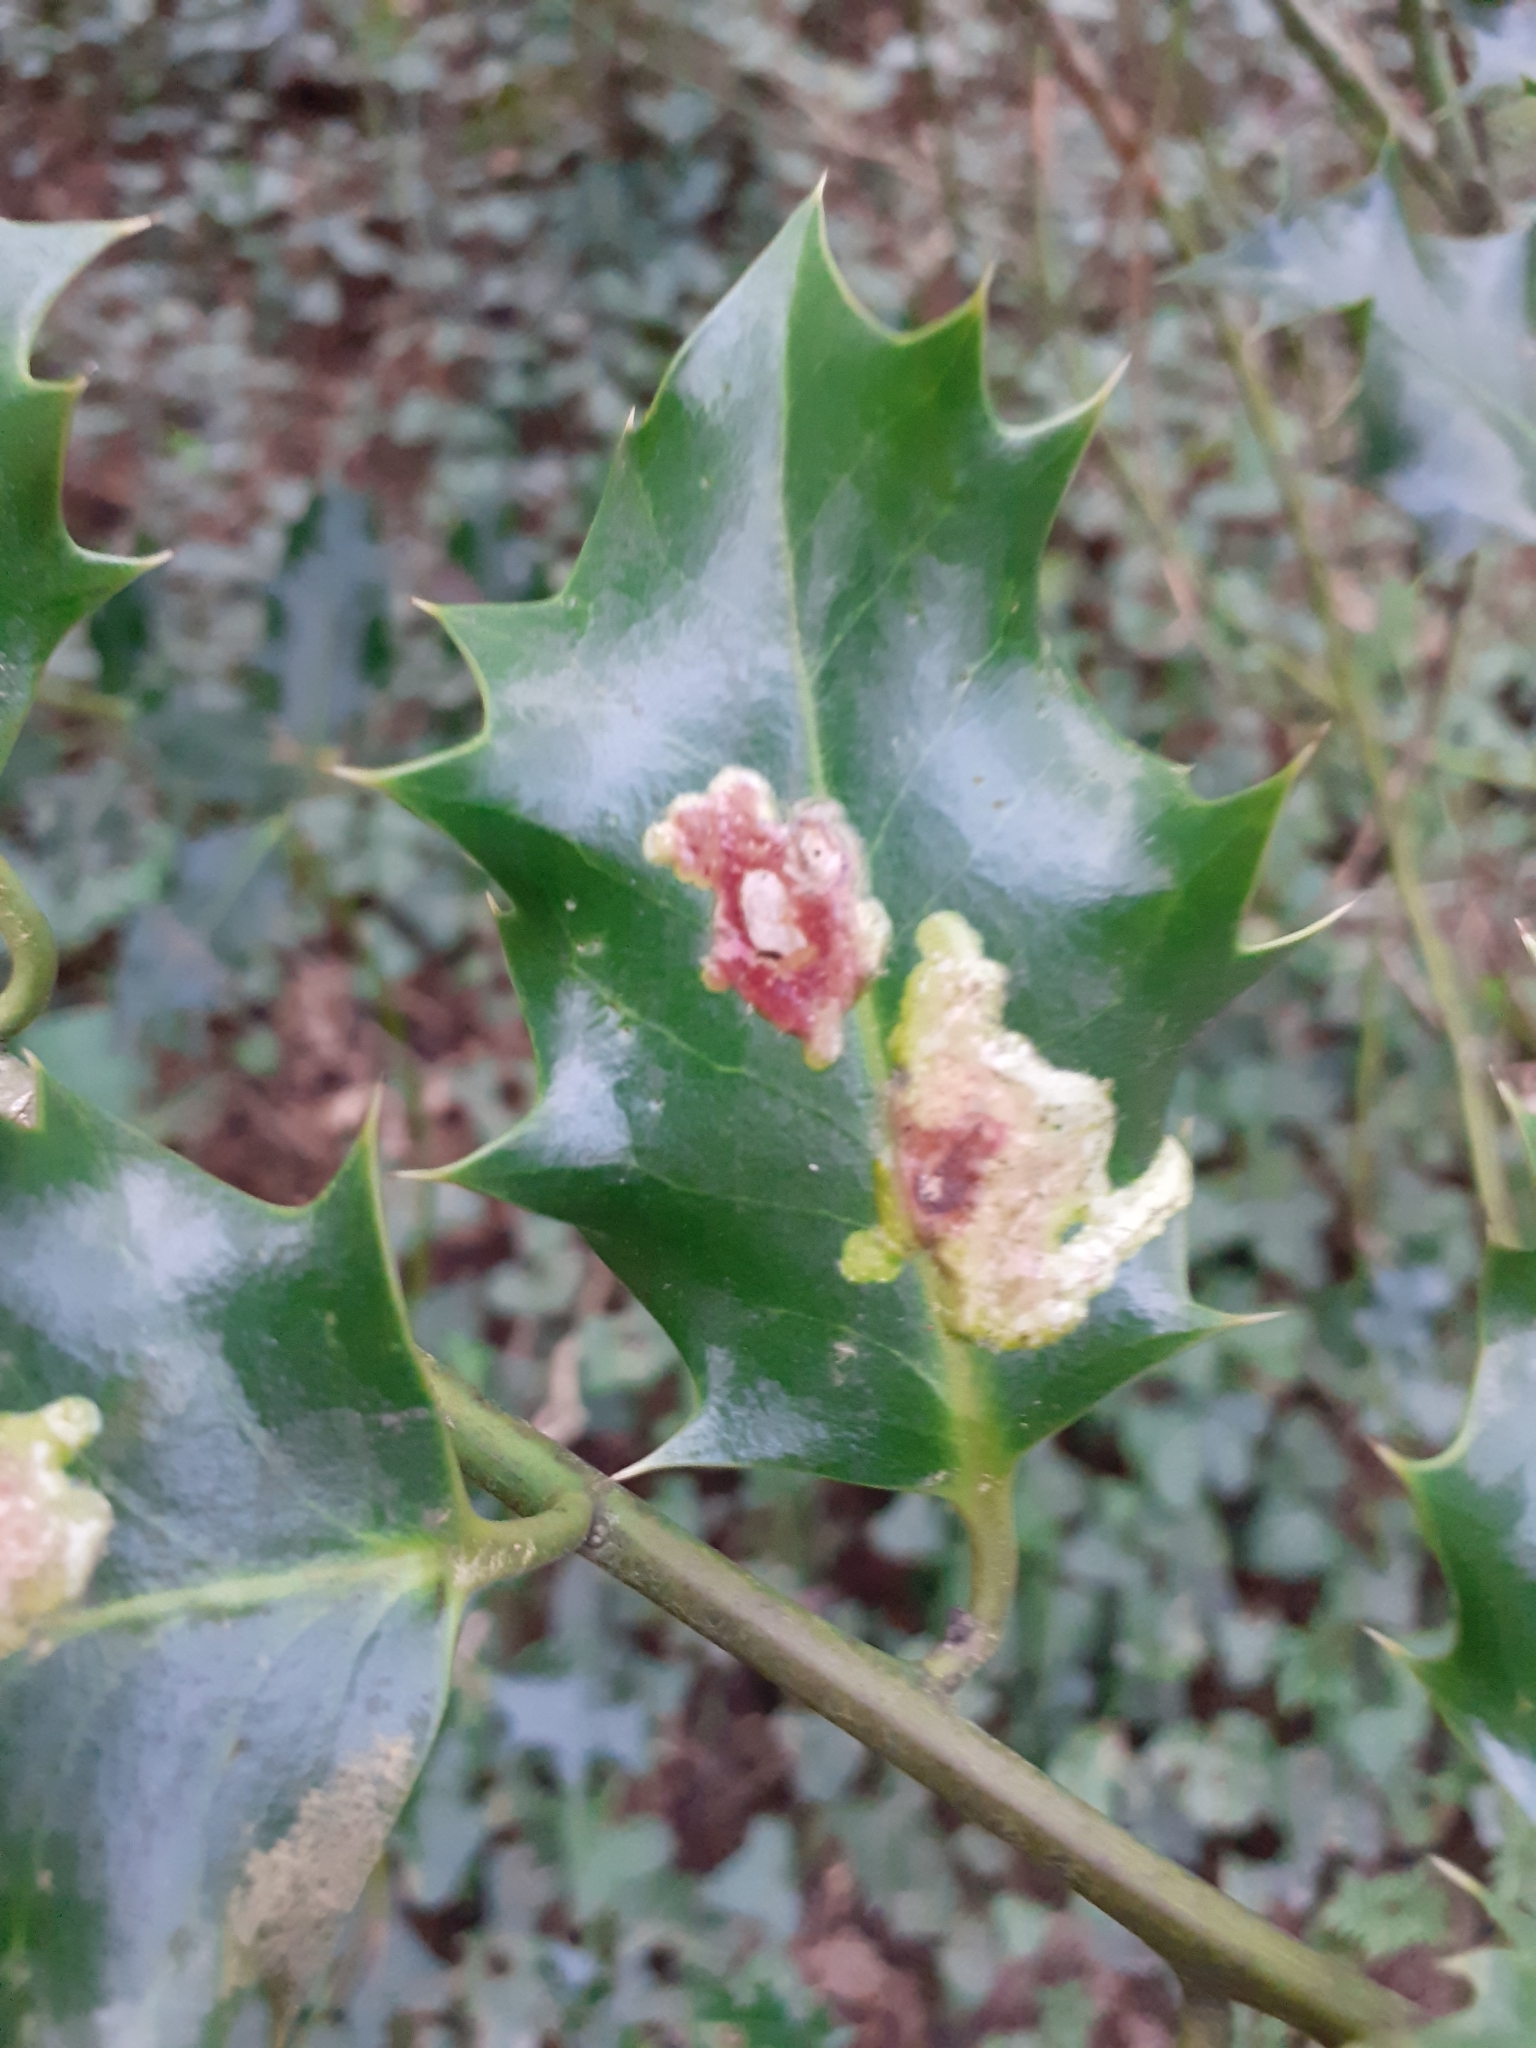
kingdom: Animalia
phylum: Arthropoda
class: Insecta
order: Diptera
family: Agromyzidae
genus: Phytomyza
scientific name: Phytomyza ilicis
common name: Holly leafminer
